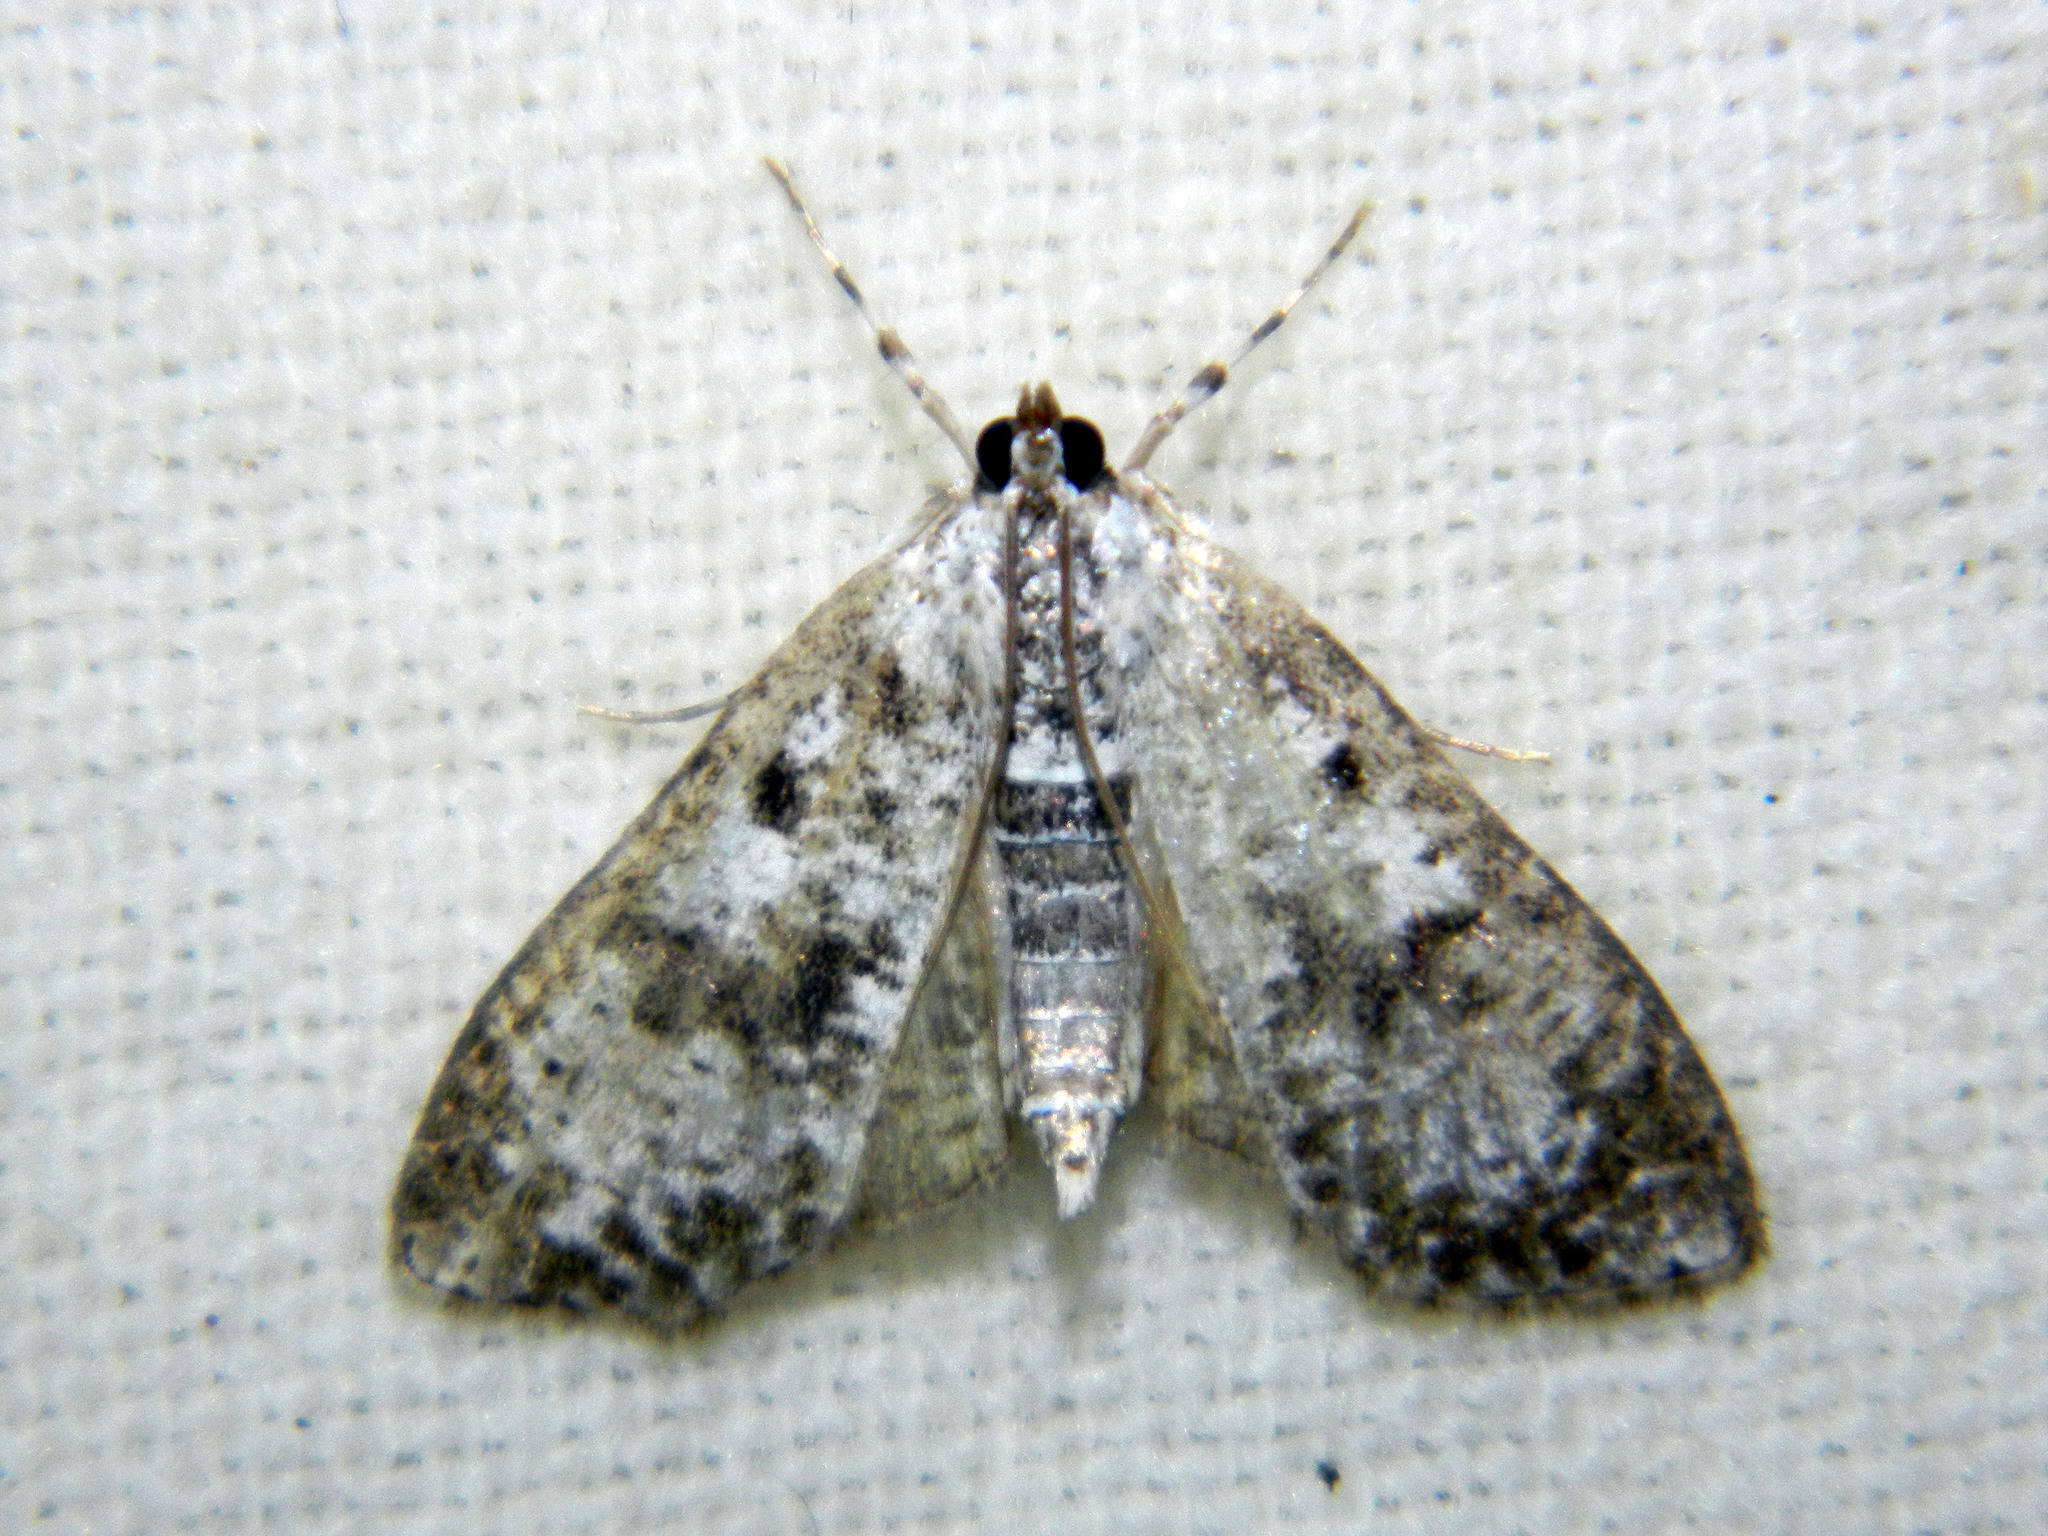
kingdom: Animalia
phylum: Arthropoda
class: Insecta
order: Lepidoptera
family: Crambidae
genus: Palpita
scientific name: Palpita magniferalis
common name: Splendid palpita moth
